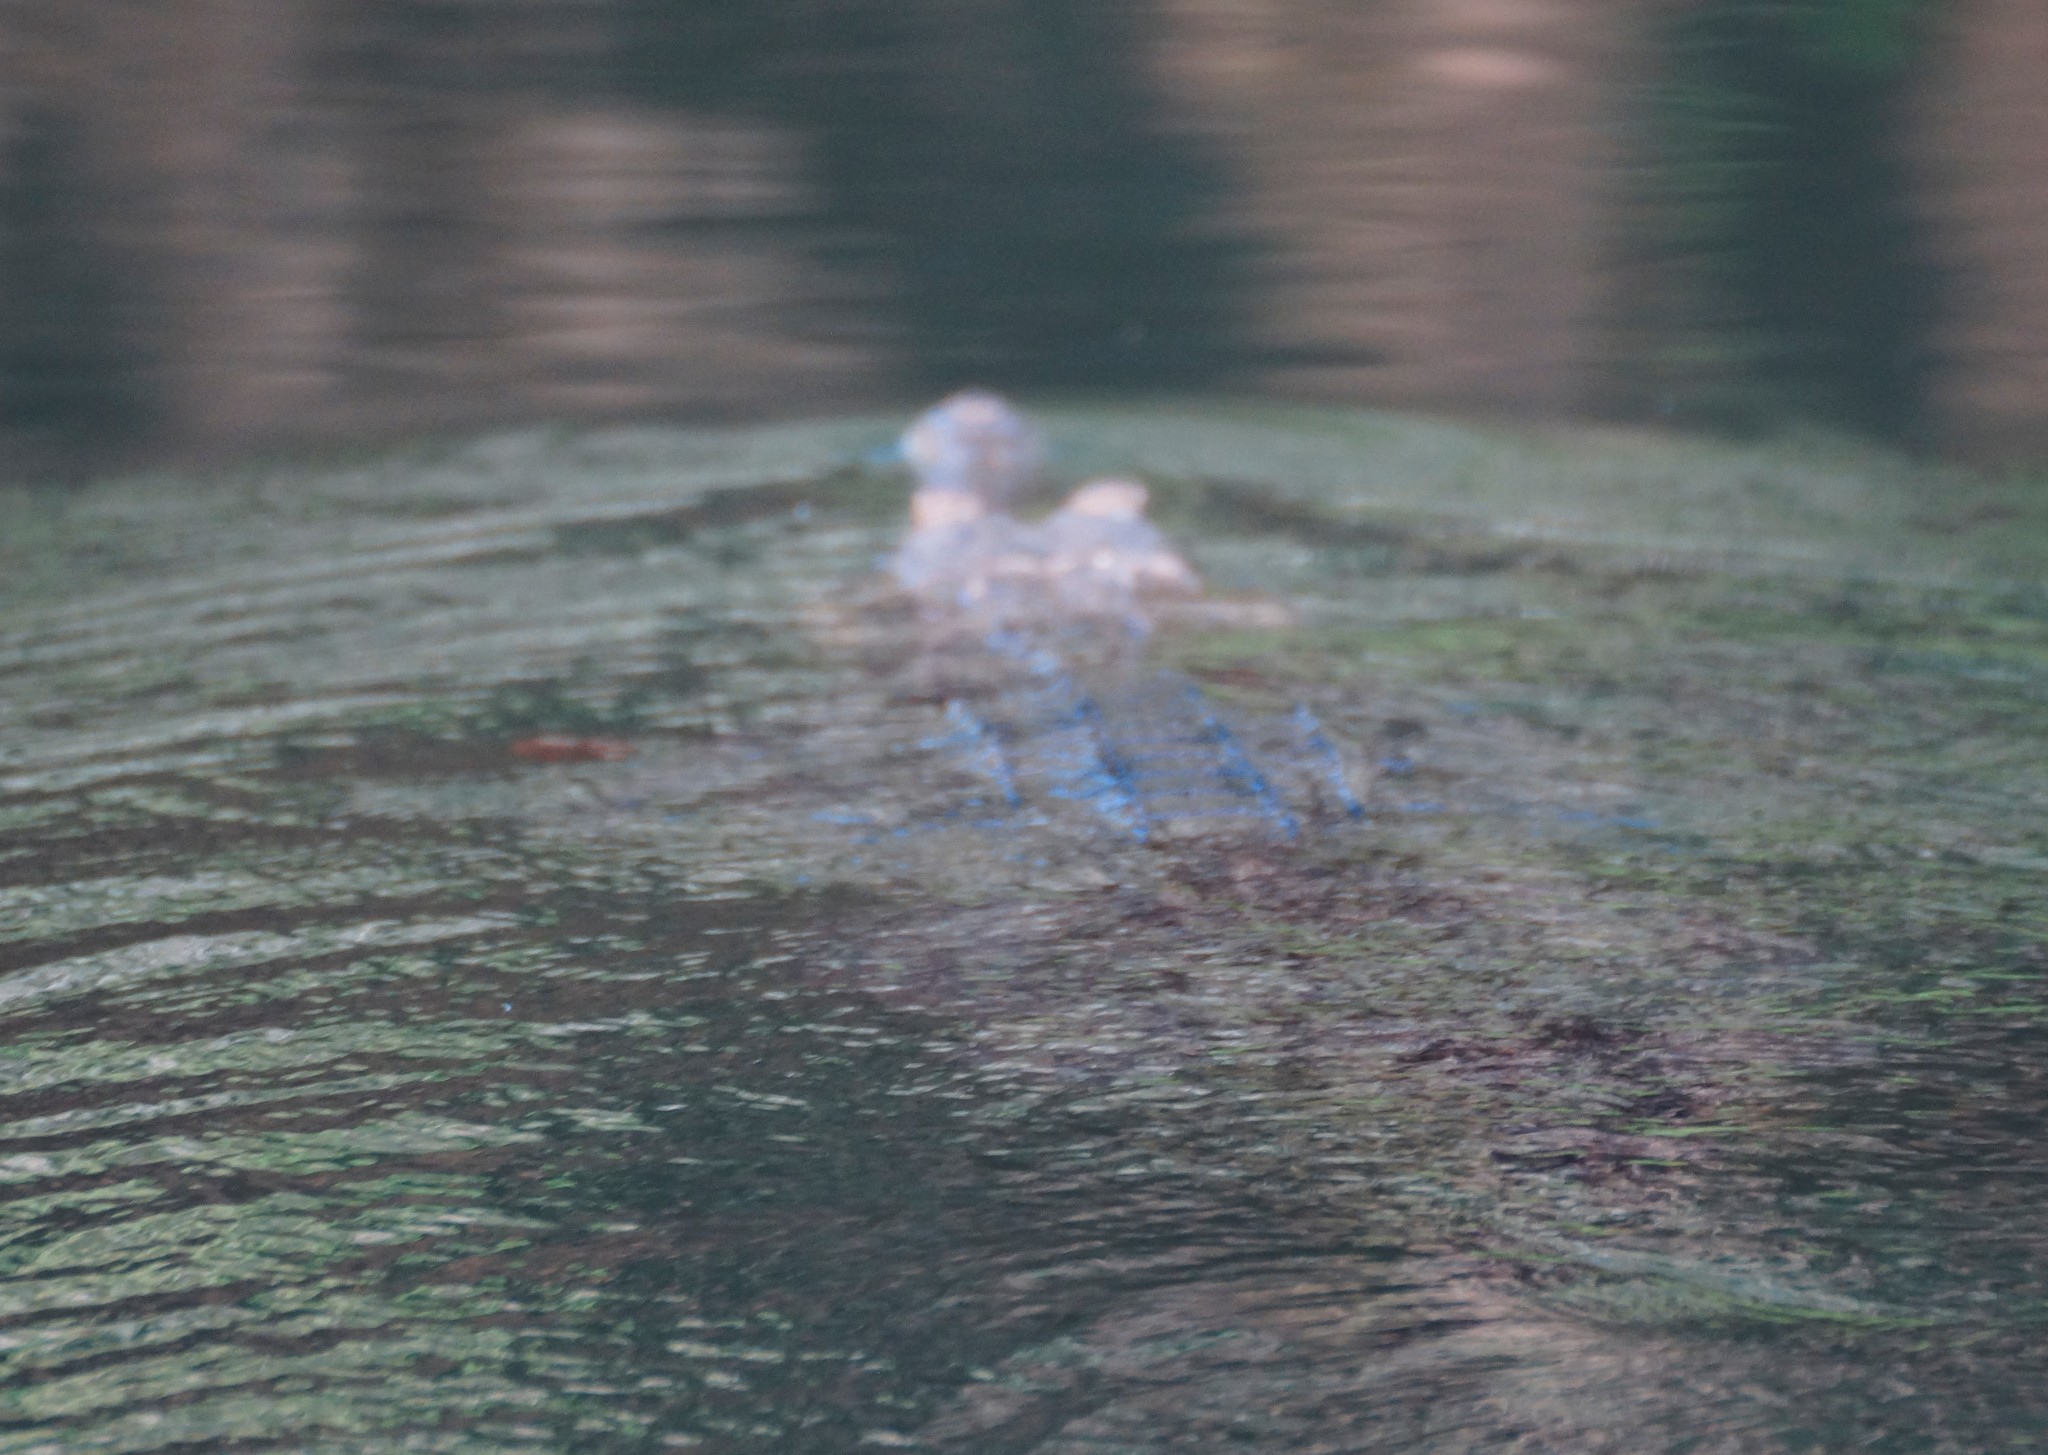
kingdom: Animalia
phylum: Chordata
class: Crocodylia
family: Crocodylidae
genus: Crocodylus
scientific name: Crocodylus johnsoni
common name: Freshwater crocodile
